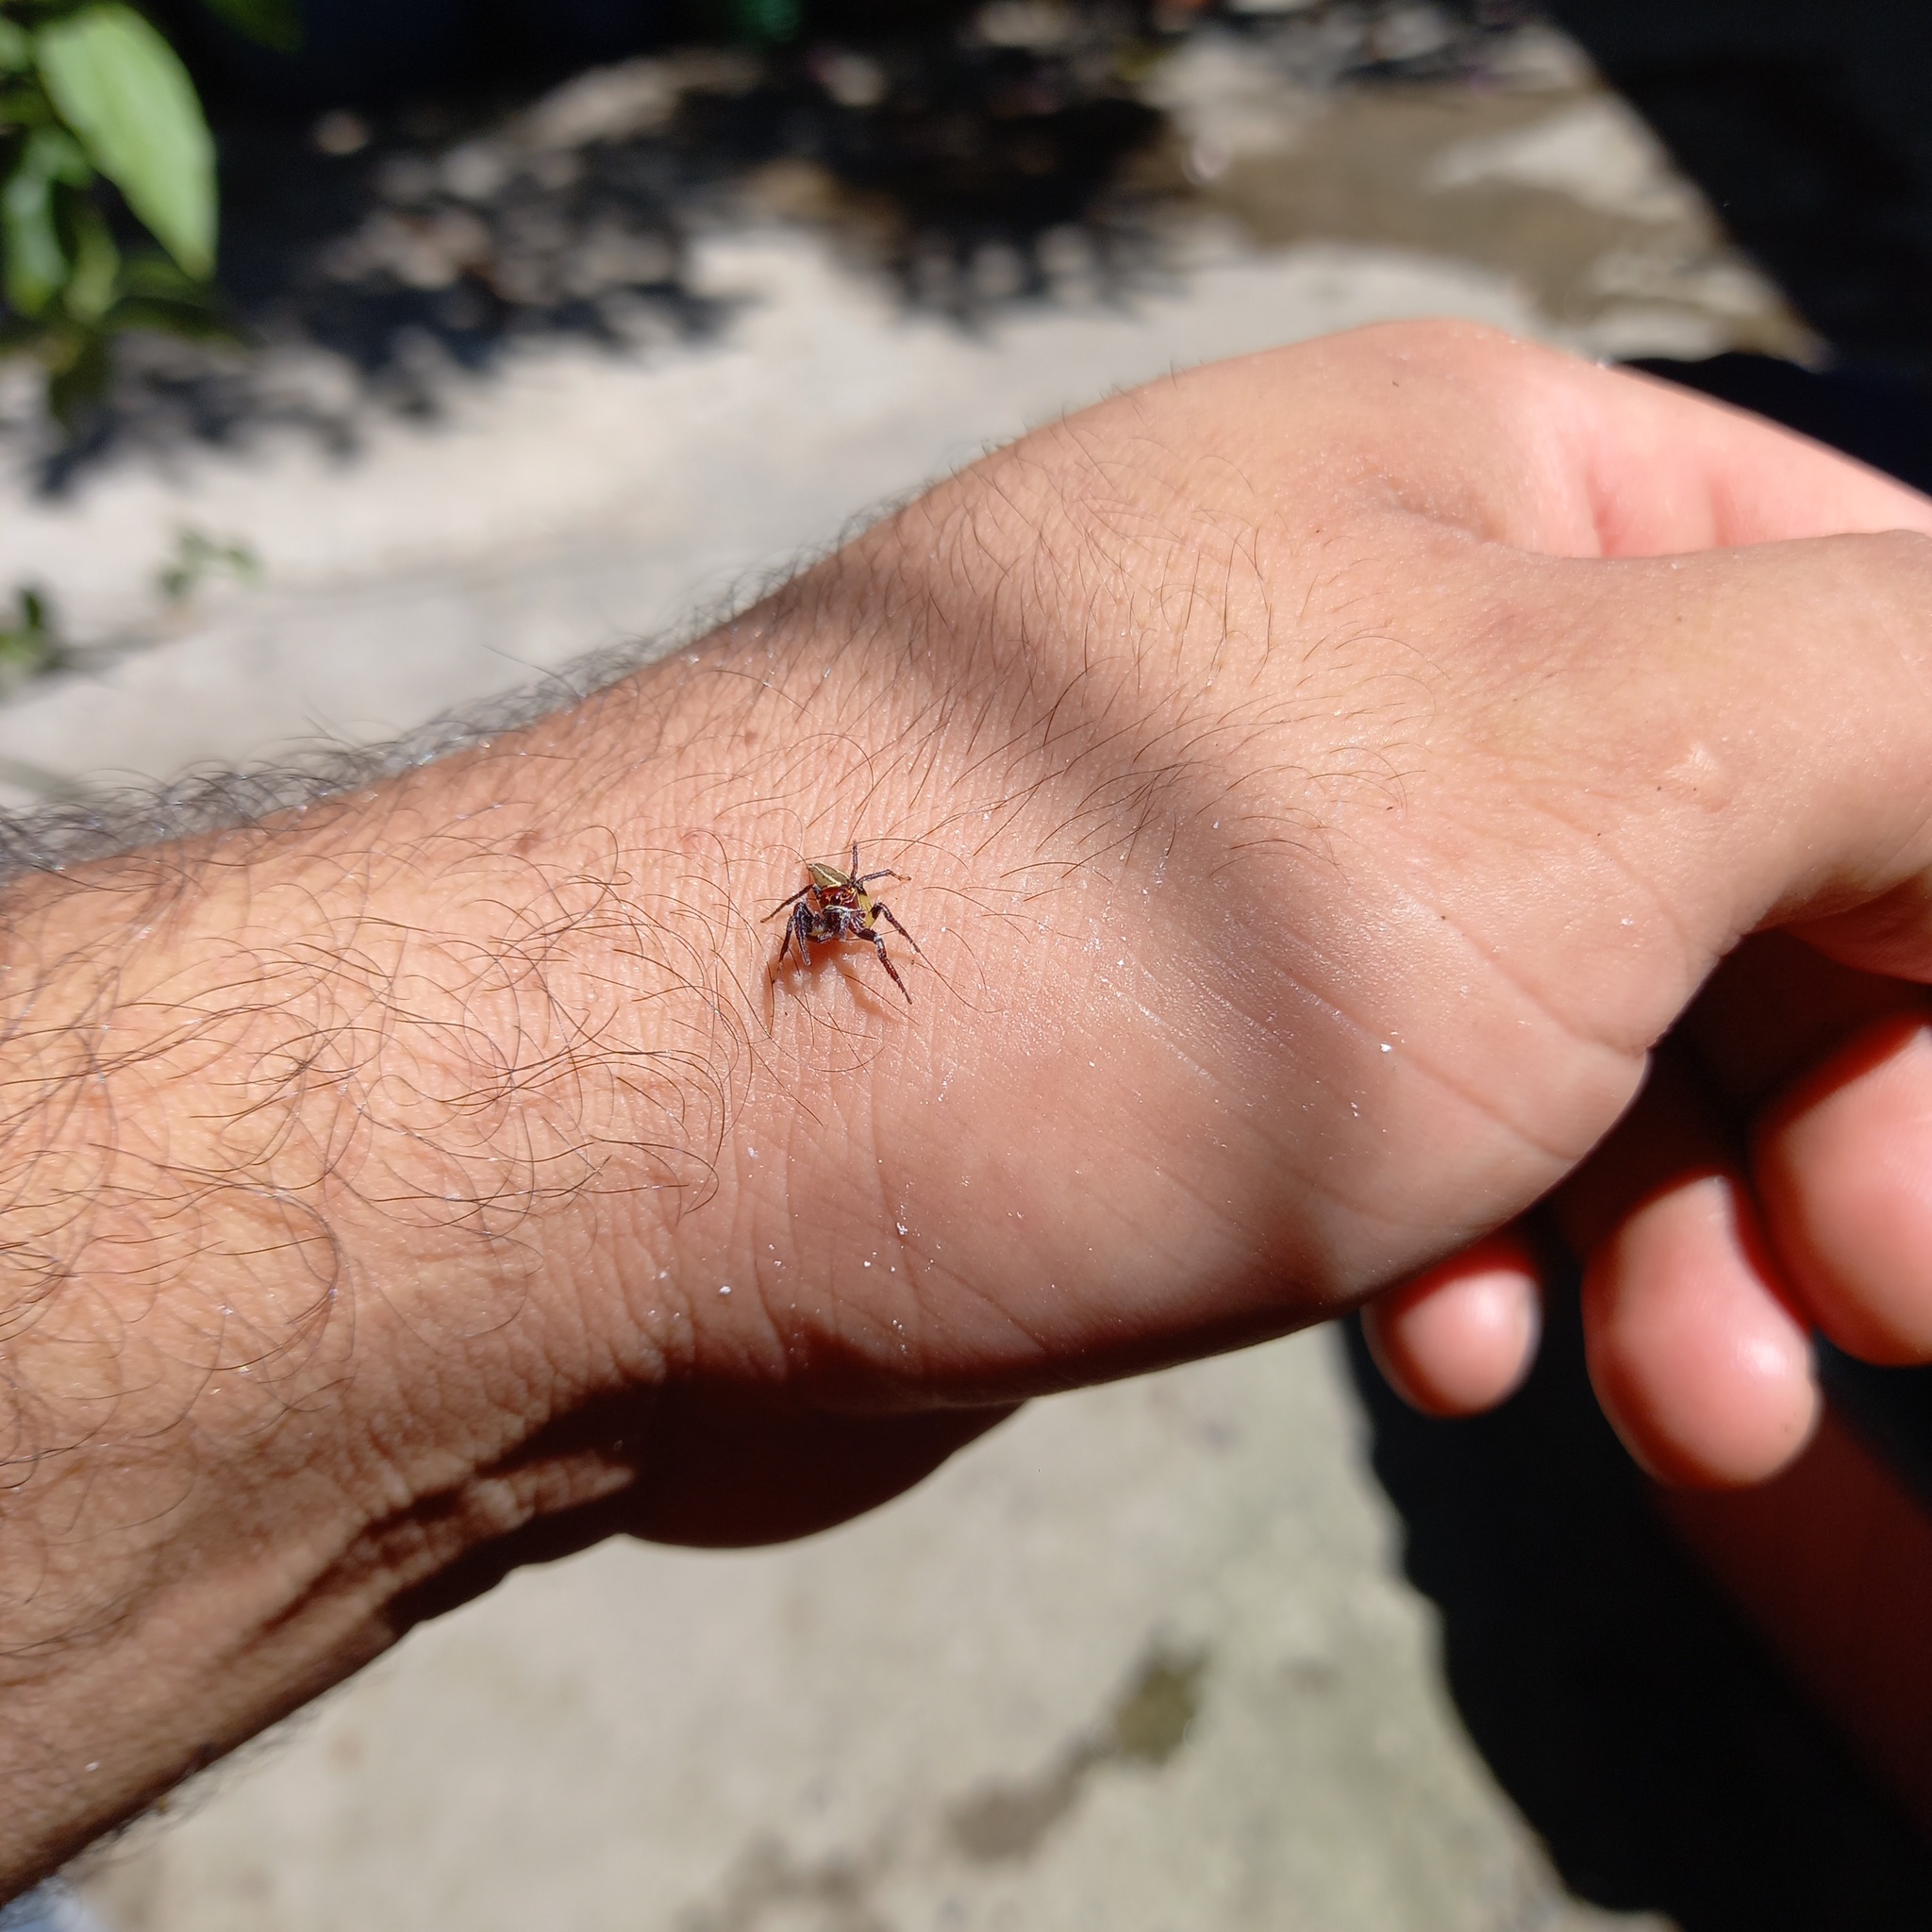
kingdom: Animalia
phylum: Arthropoda
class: Arachnida
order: Araneae
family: Salticidae
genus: Colonus
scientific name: Colonus sylvanus
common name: Jumping spiders
